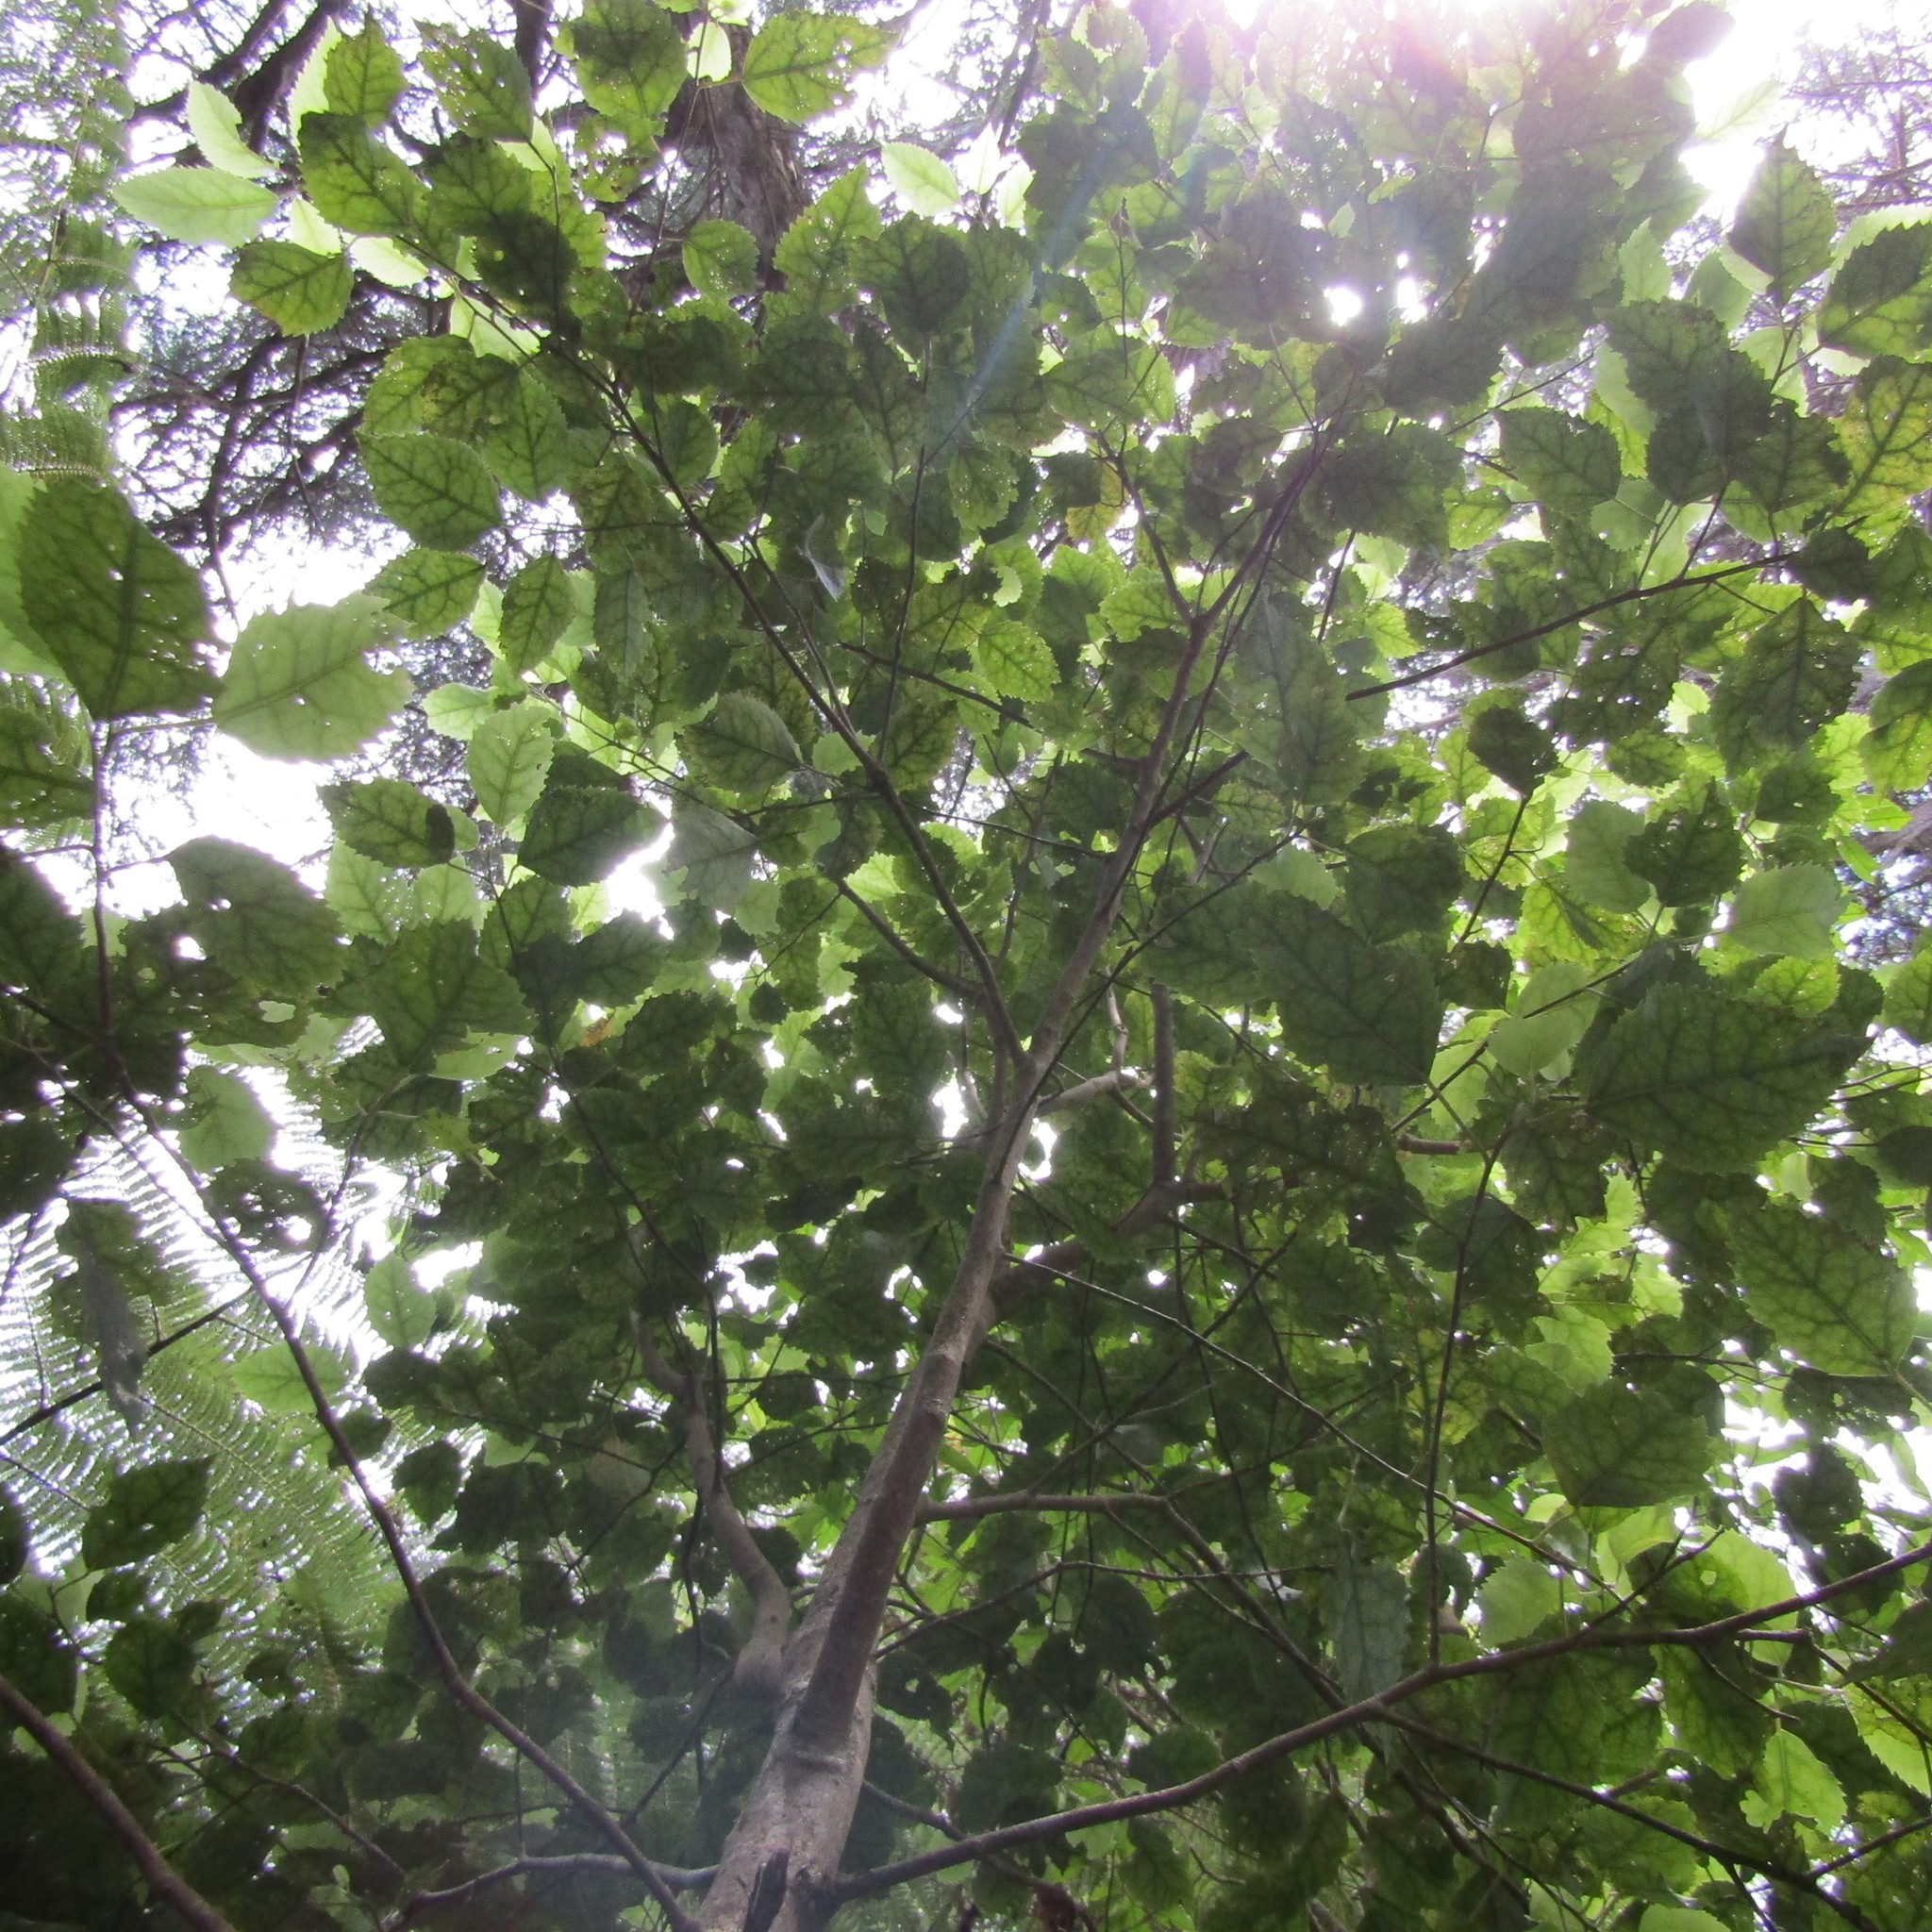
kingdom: Plantae
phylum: Tracheophyta
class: Magnoliopsida
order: Malvales
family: Malvaceae
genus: Hoheria
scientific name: Hoheria populnea
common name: Lacebark
